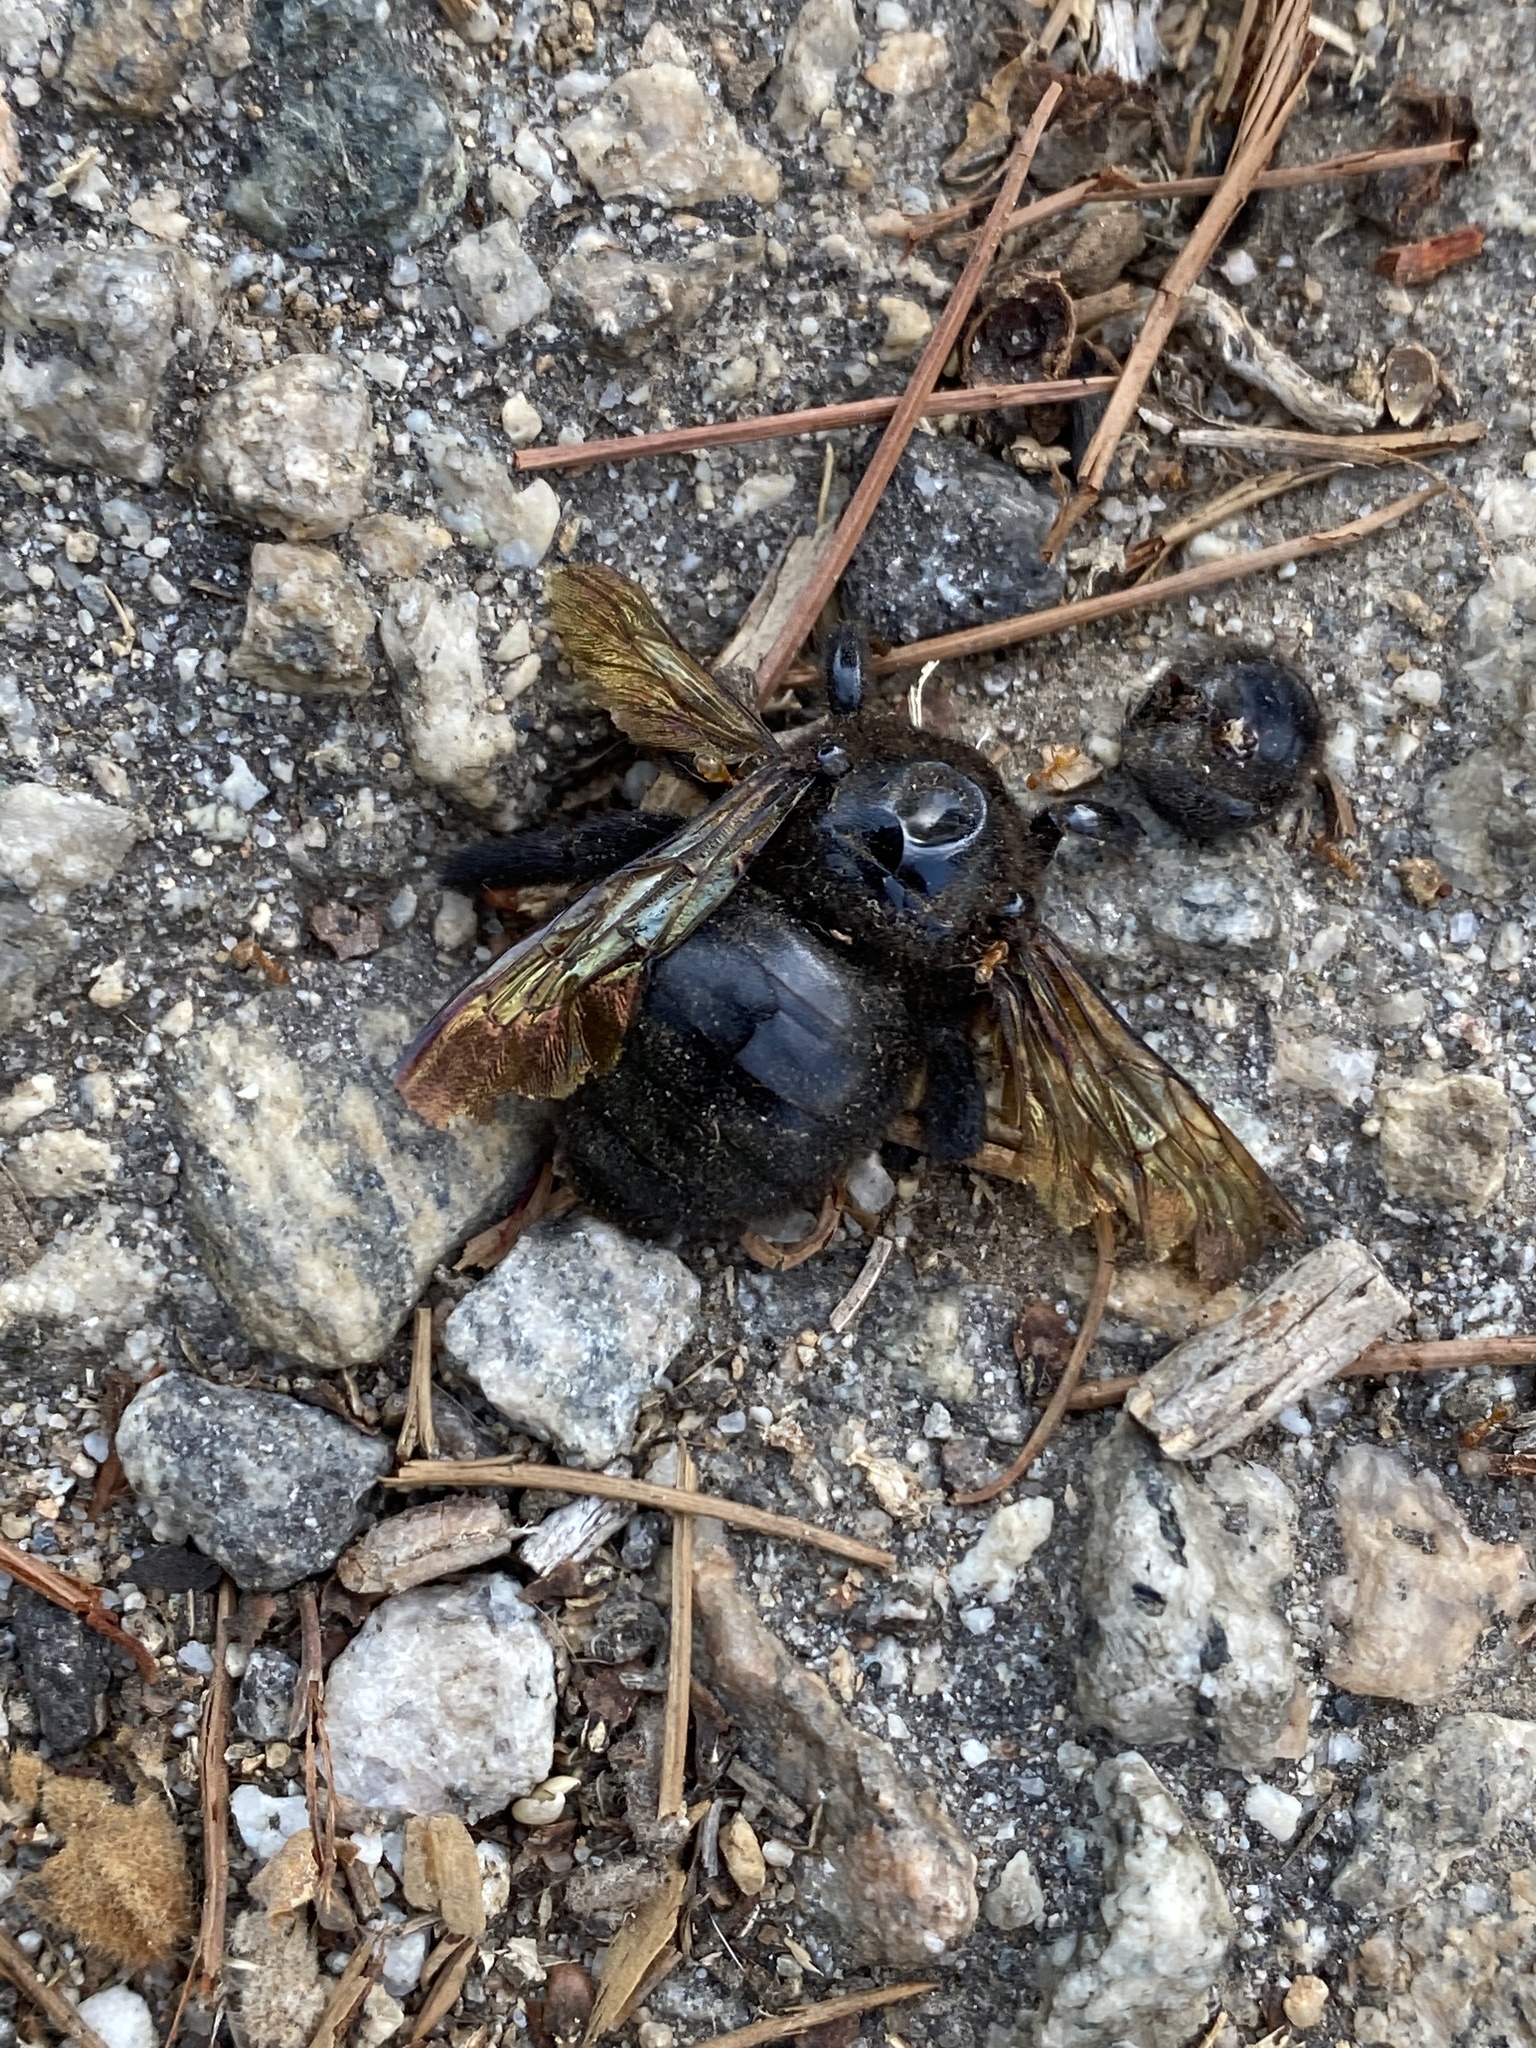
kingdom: Animalia
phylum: Arthropoda
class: Insecta
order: Hymenoptera
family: Apidae
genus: Xylocopa
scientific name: Xylocopa sonorina
